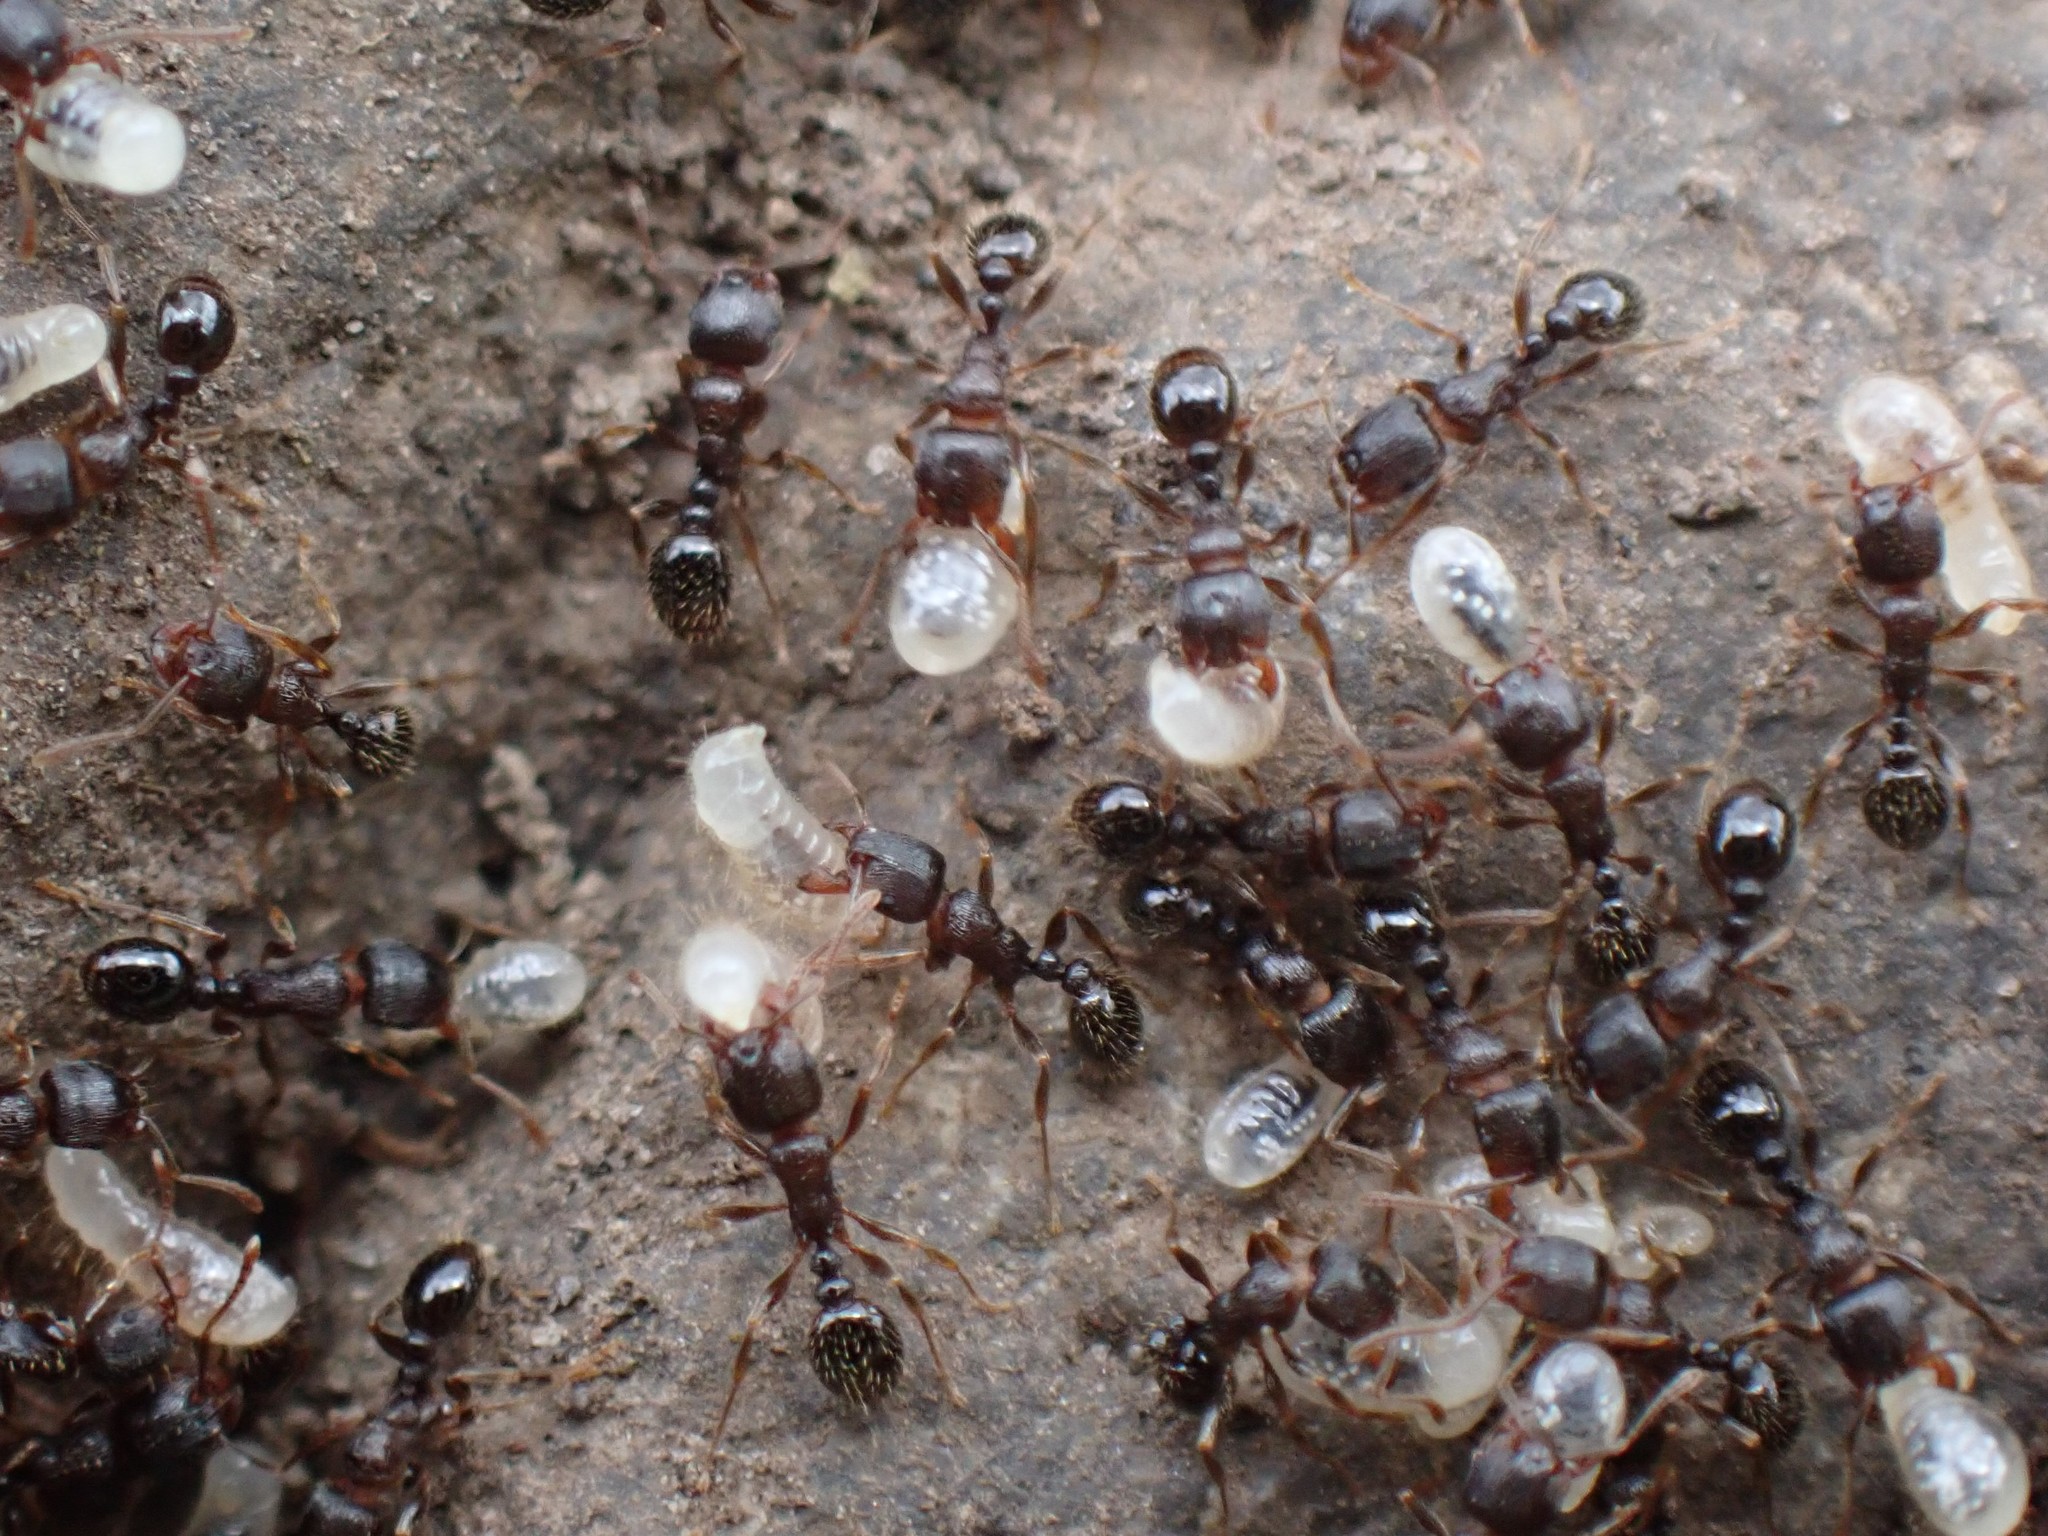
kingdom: Animalia
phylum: Arthropoda
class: Insecta
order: Hymenoptera
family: Formicidae
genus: Tetramorium
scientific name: Tetramorium immigrans
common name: Pavement ant
